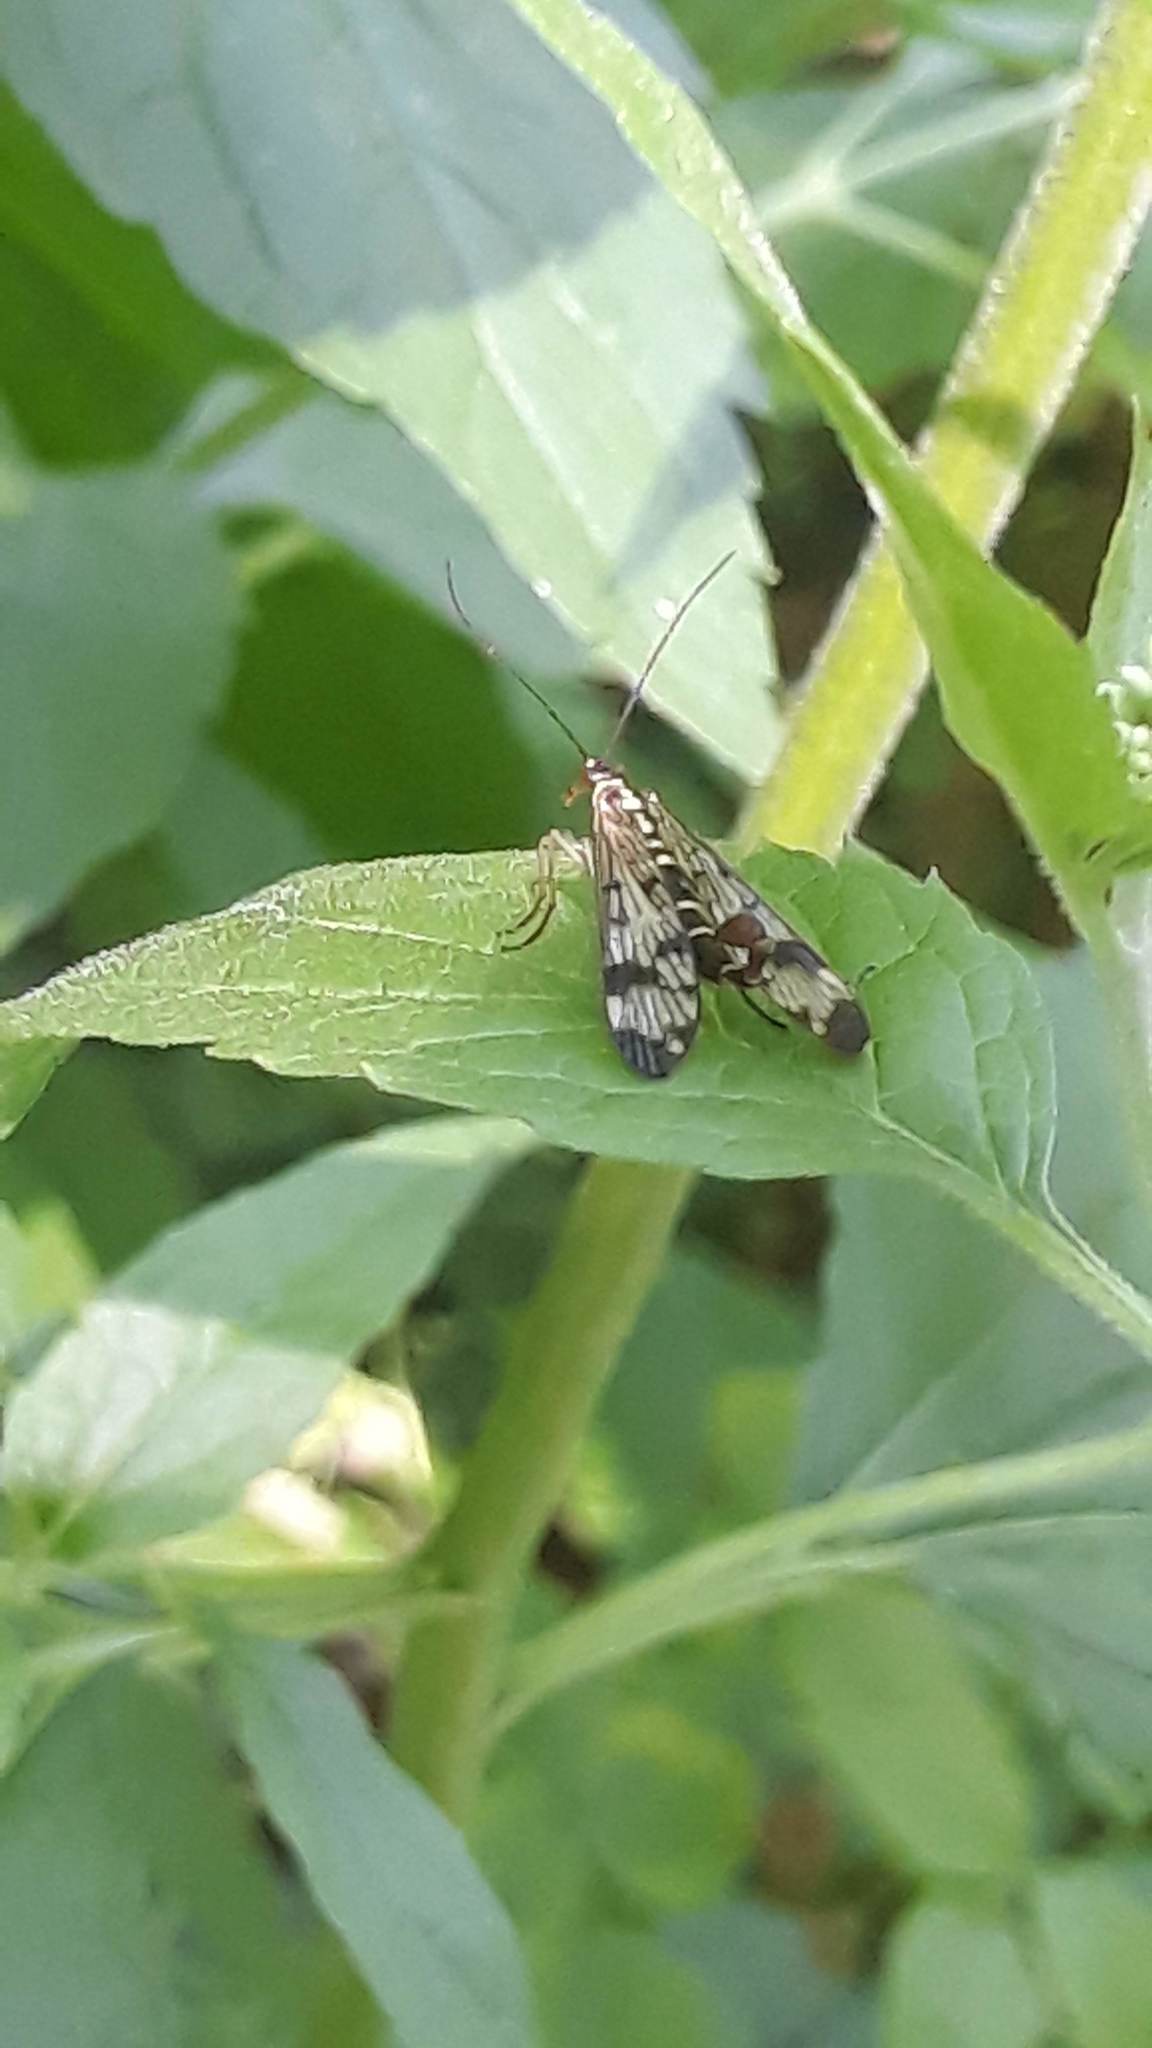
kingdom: Animalia
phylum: Arthropoda
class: Insecta
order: Mecoptera
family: Panorpidae
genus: Panorpa
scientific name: Panorpa communis
